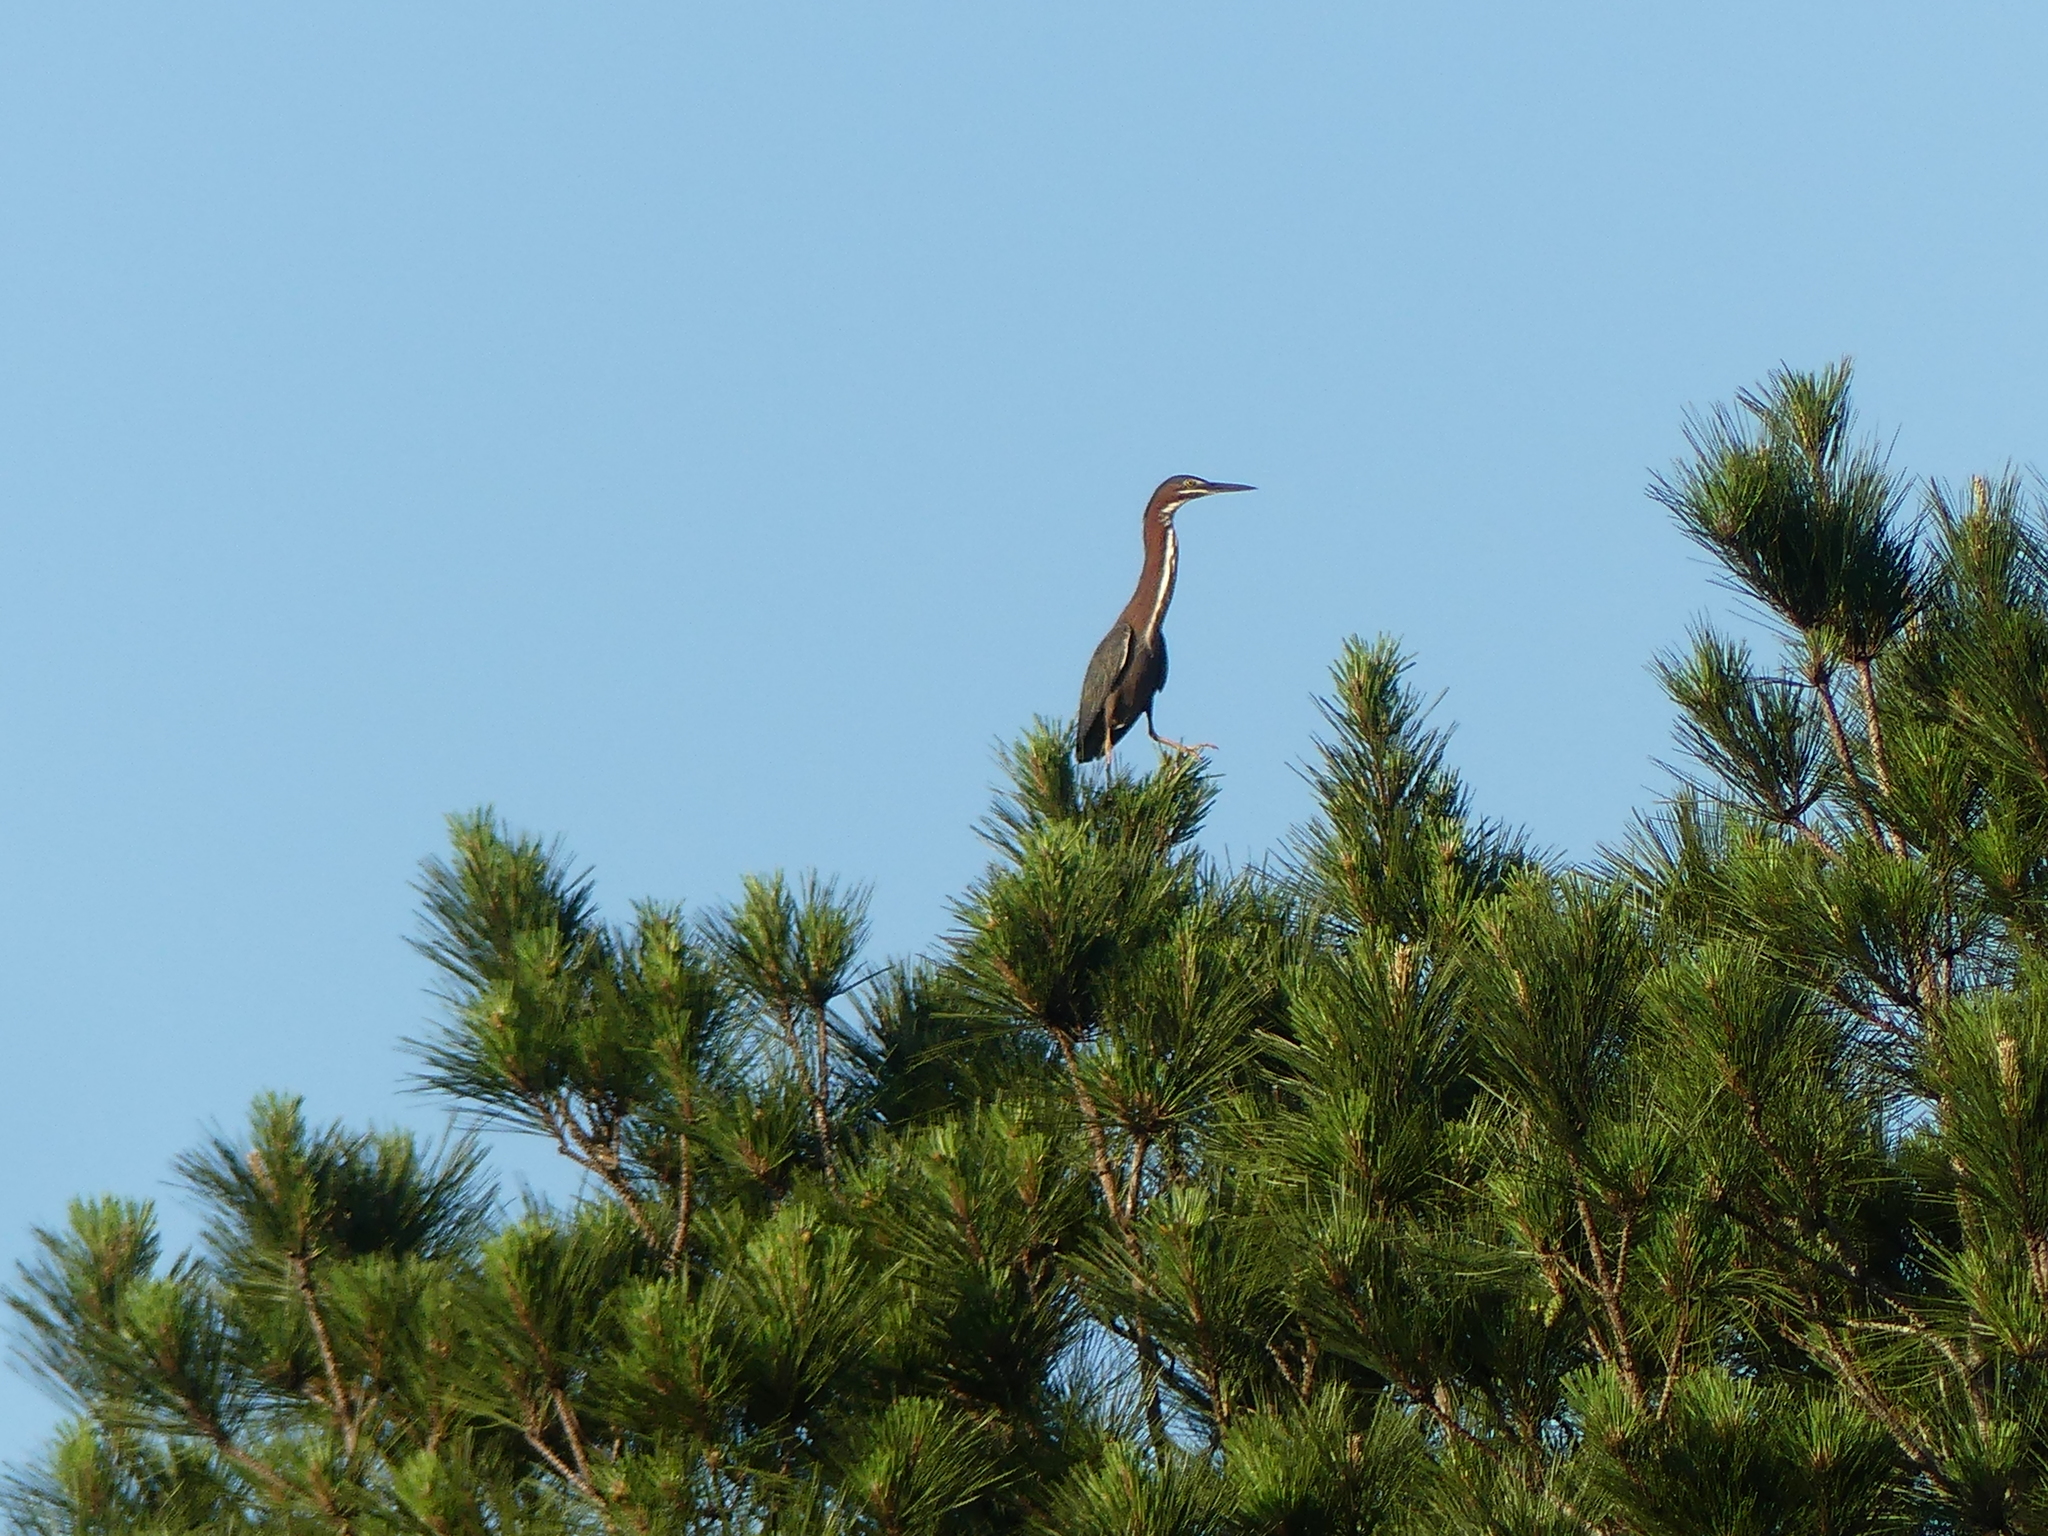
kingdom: Animalia
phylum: Chordata
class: Aves
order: Pelecaniformes
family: Ardeidae
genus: Butorides
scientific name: Butorides virescens
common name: Green heron
